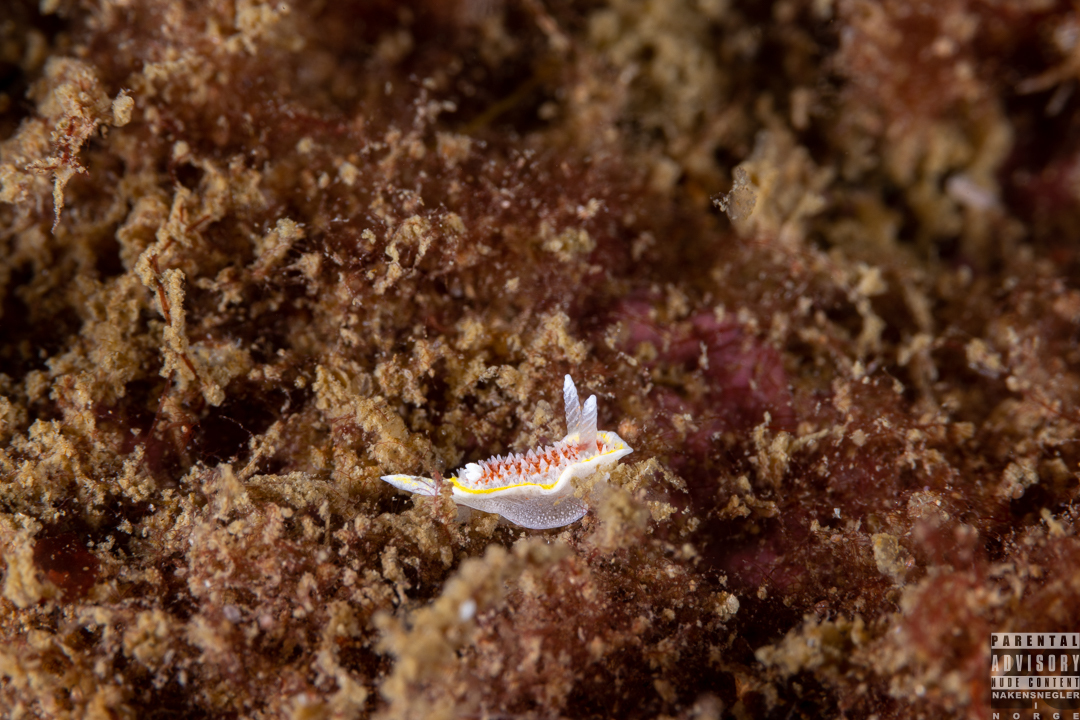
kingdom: Animalia
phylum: Mollusca
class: Gastropoda
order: Nudibranchia
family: Calycidorididae
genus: Diaphorodoris
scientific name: Diaphorodoris luteocincta
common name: Fried egg nudibranch
